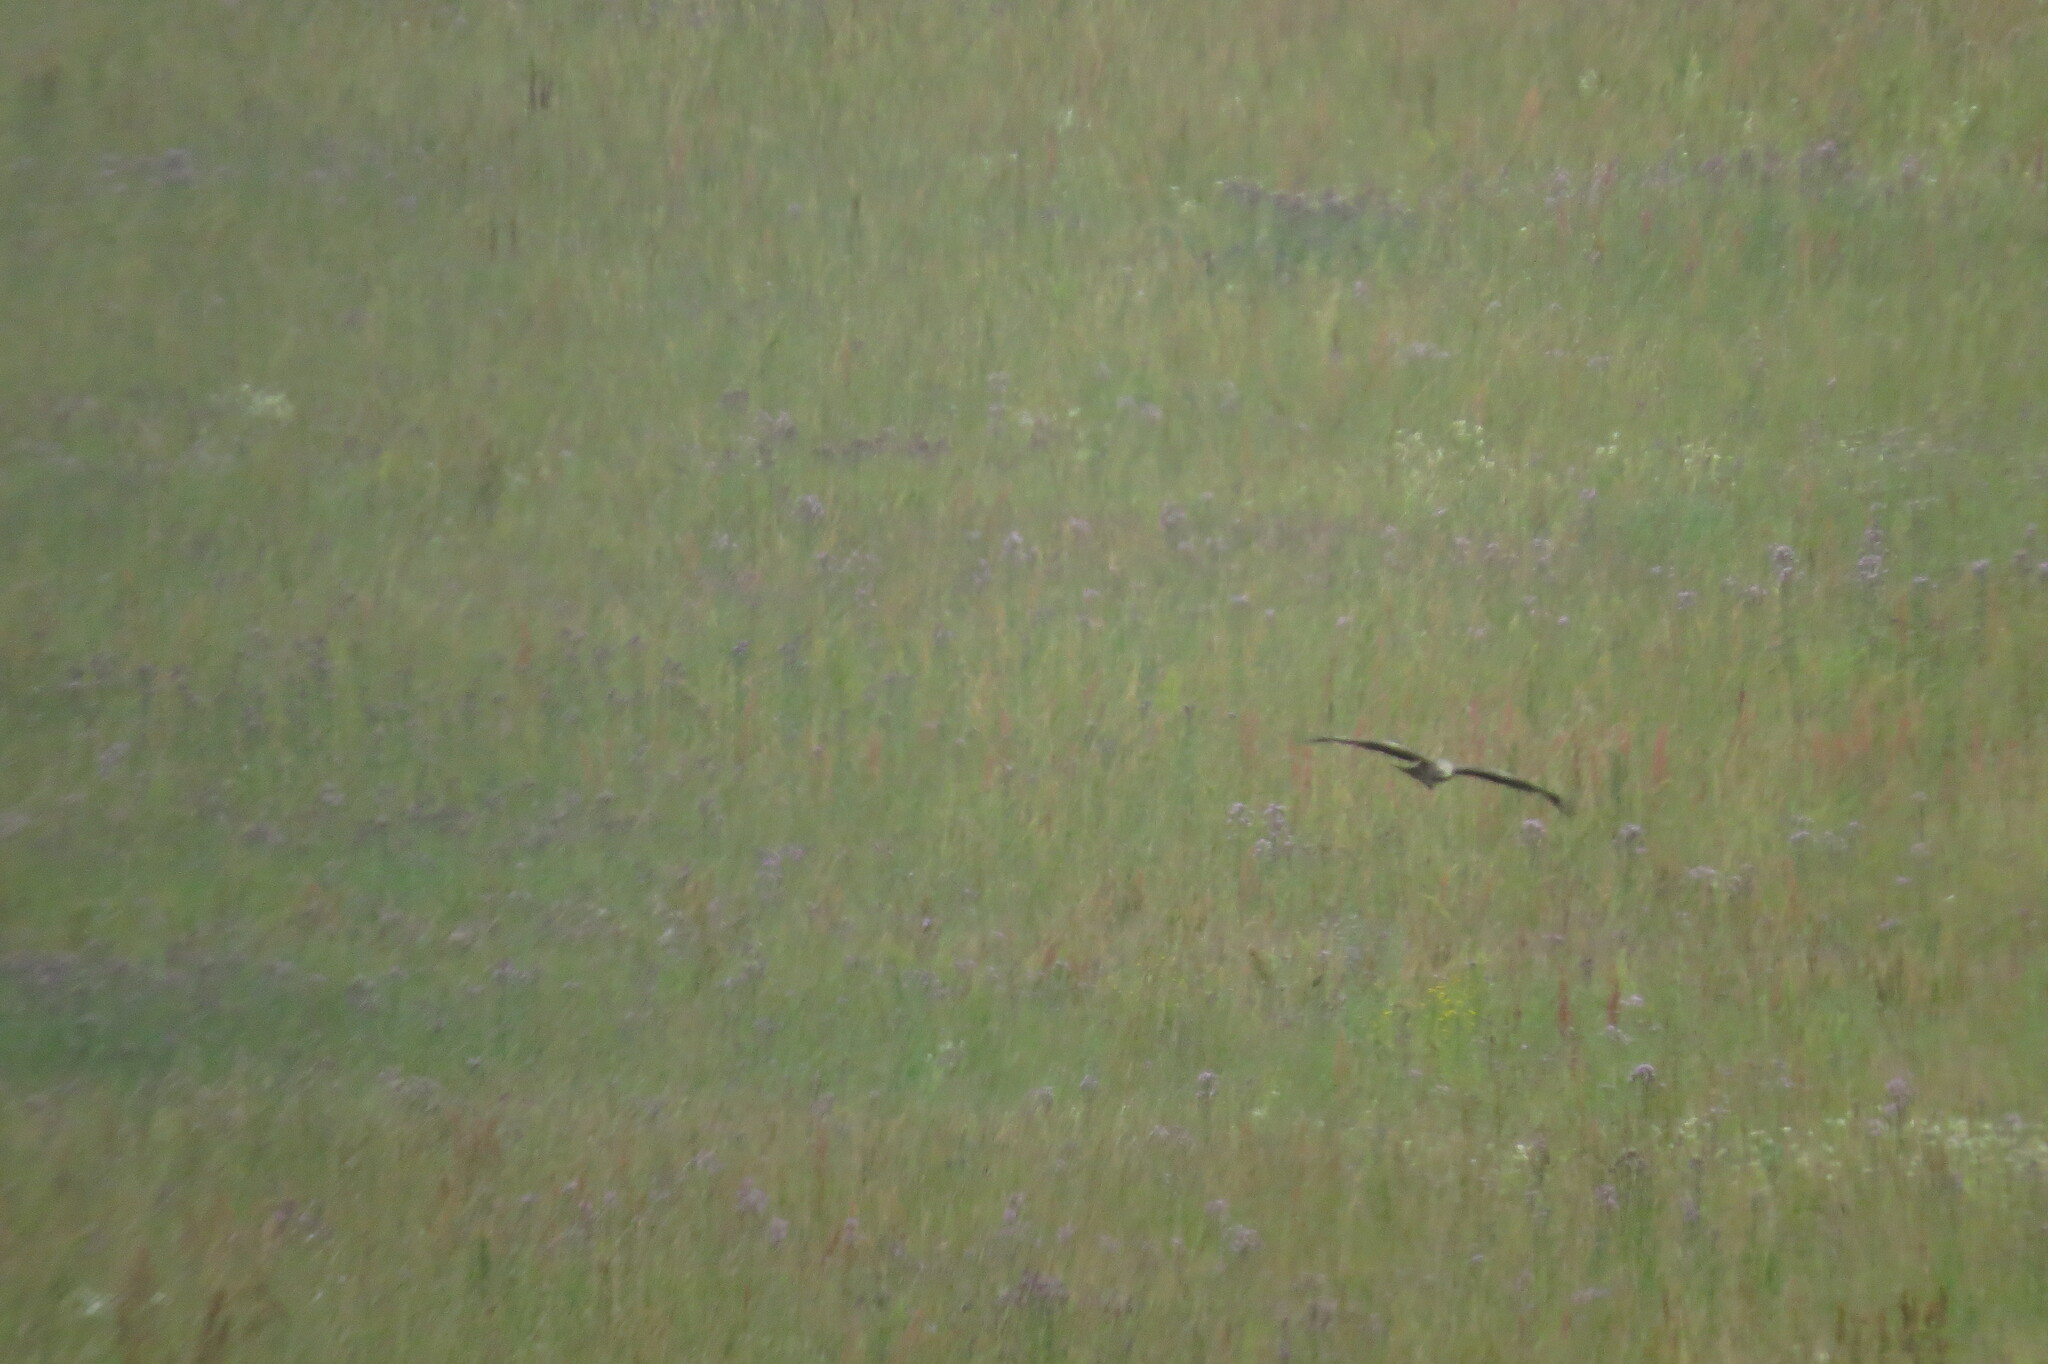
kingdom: Animalia
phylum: Chordata
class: Aves
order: Accipitriformes
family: Accipitridae
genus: Milvus
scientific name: Milvus migrans
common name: Black kite
